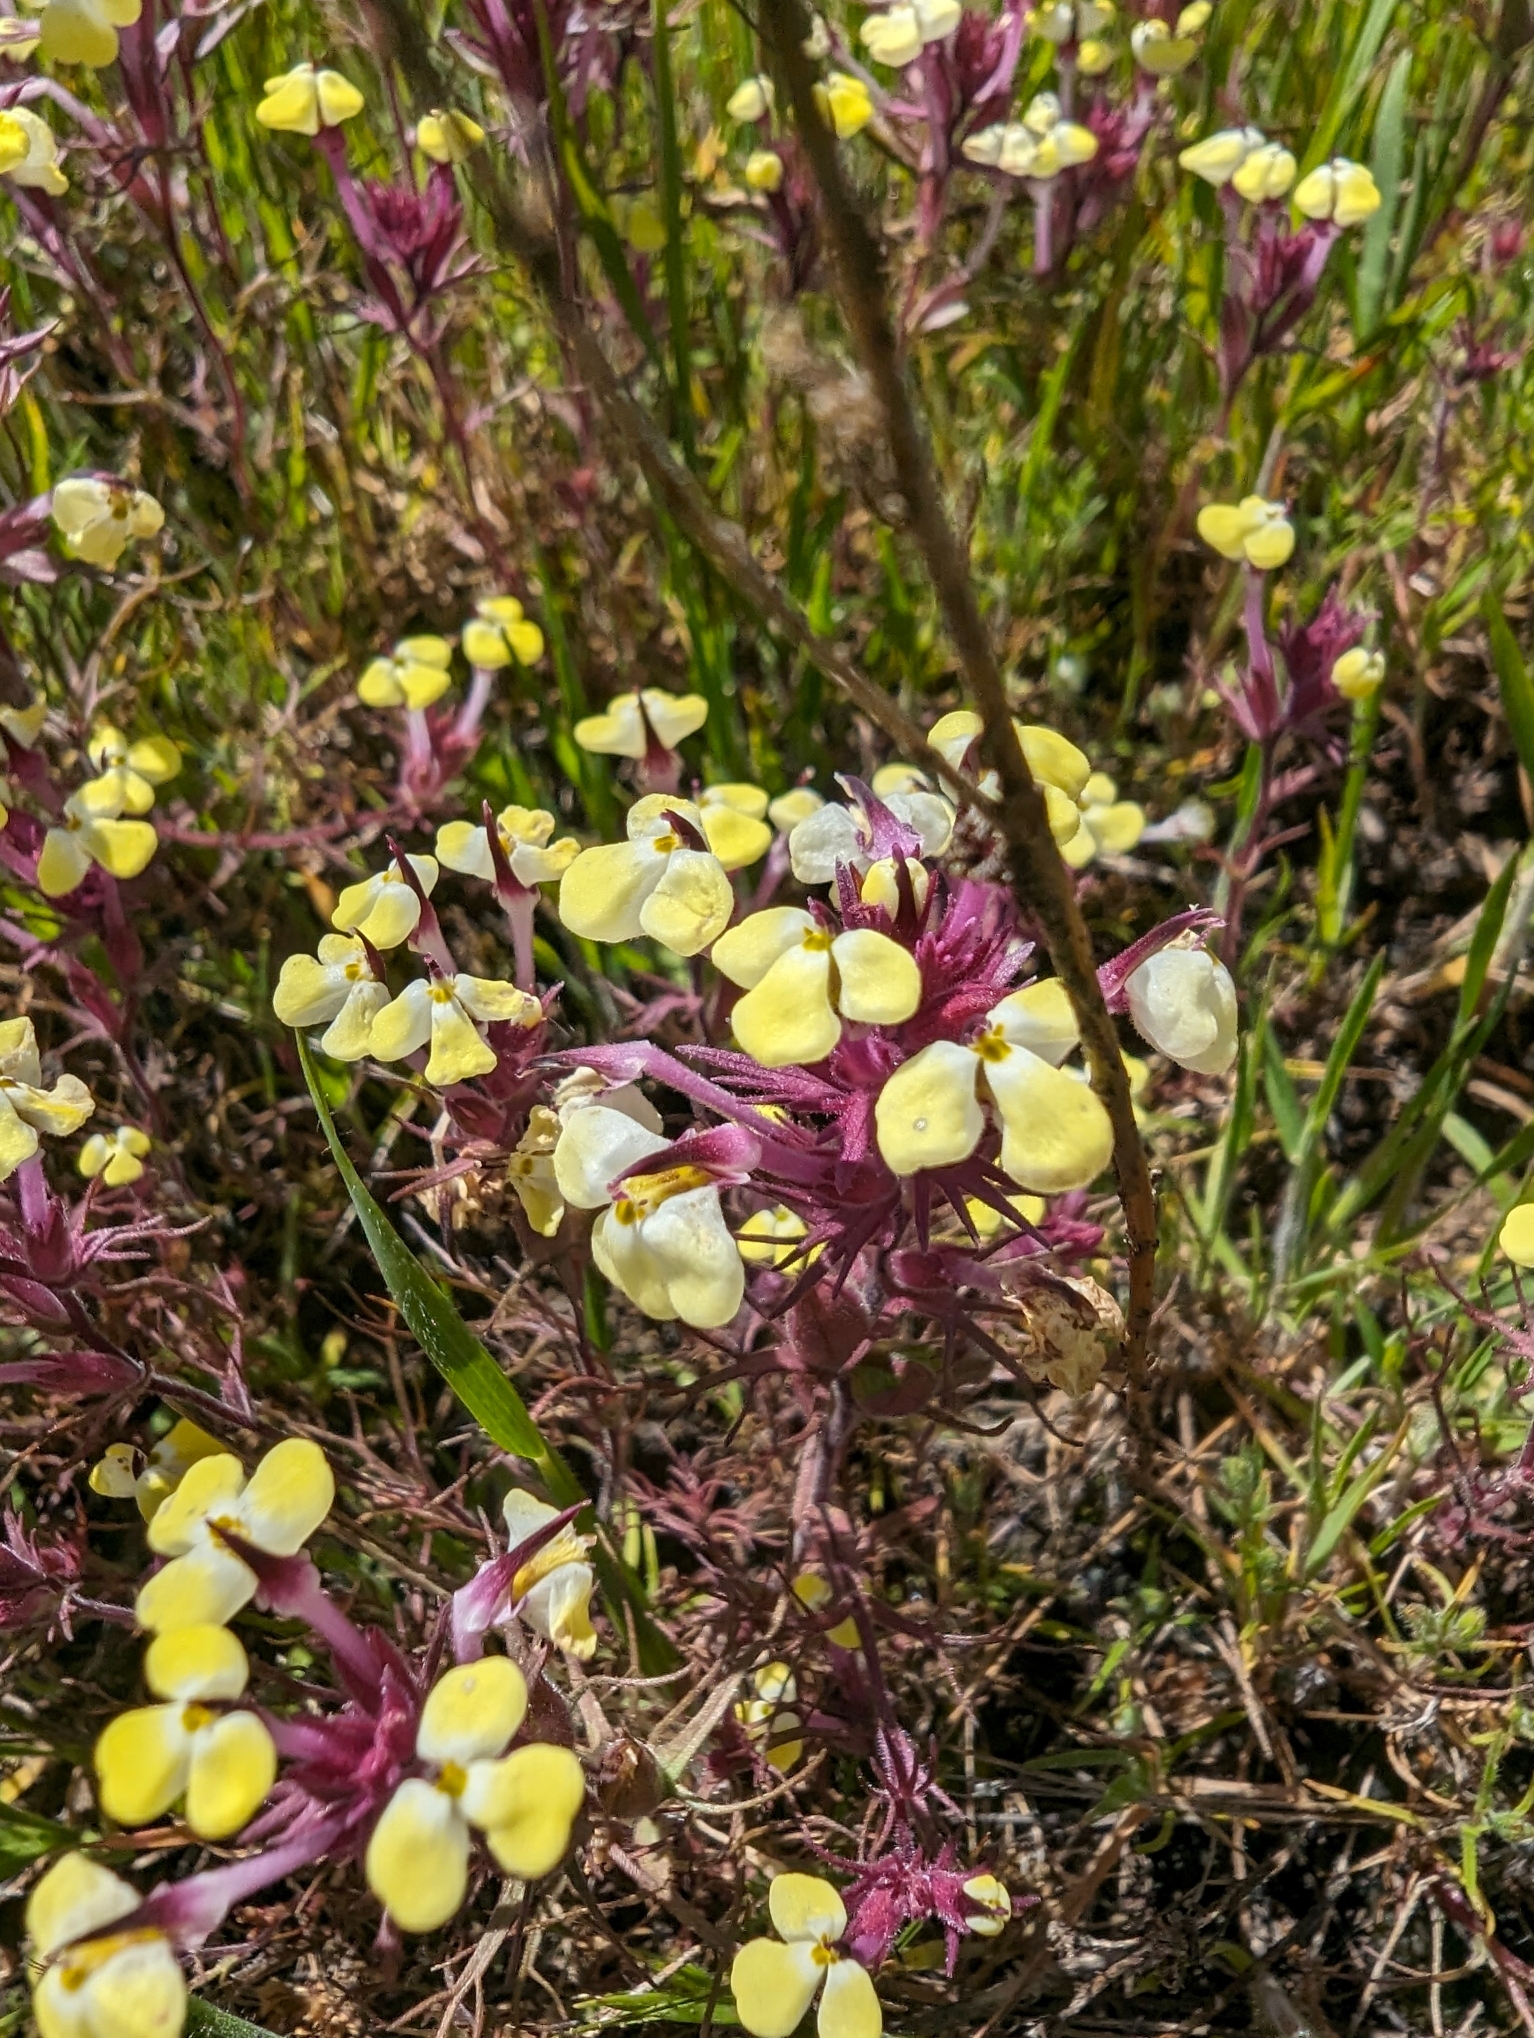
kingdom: Plantae
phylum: Tracheophyta
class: Magnoliopsida
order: Lamiales
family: Orobanchaceae
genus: Triphysaria
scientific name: Triphysaria eriantha
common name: Johnny-tuck
